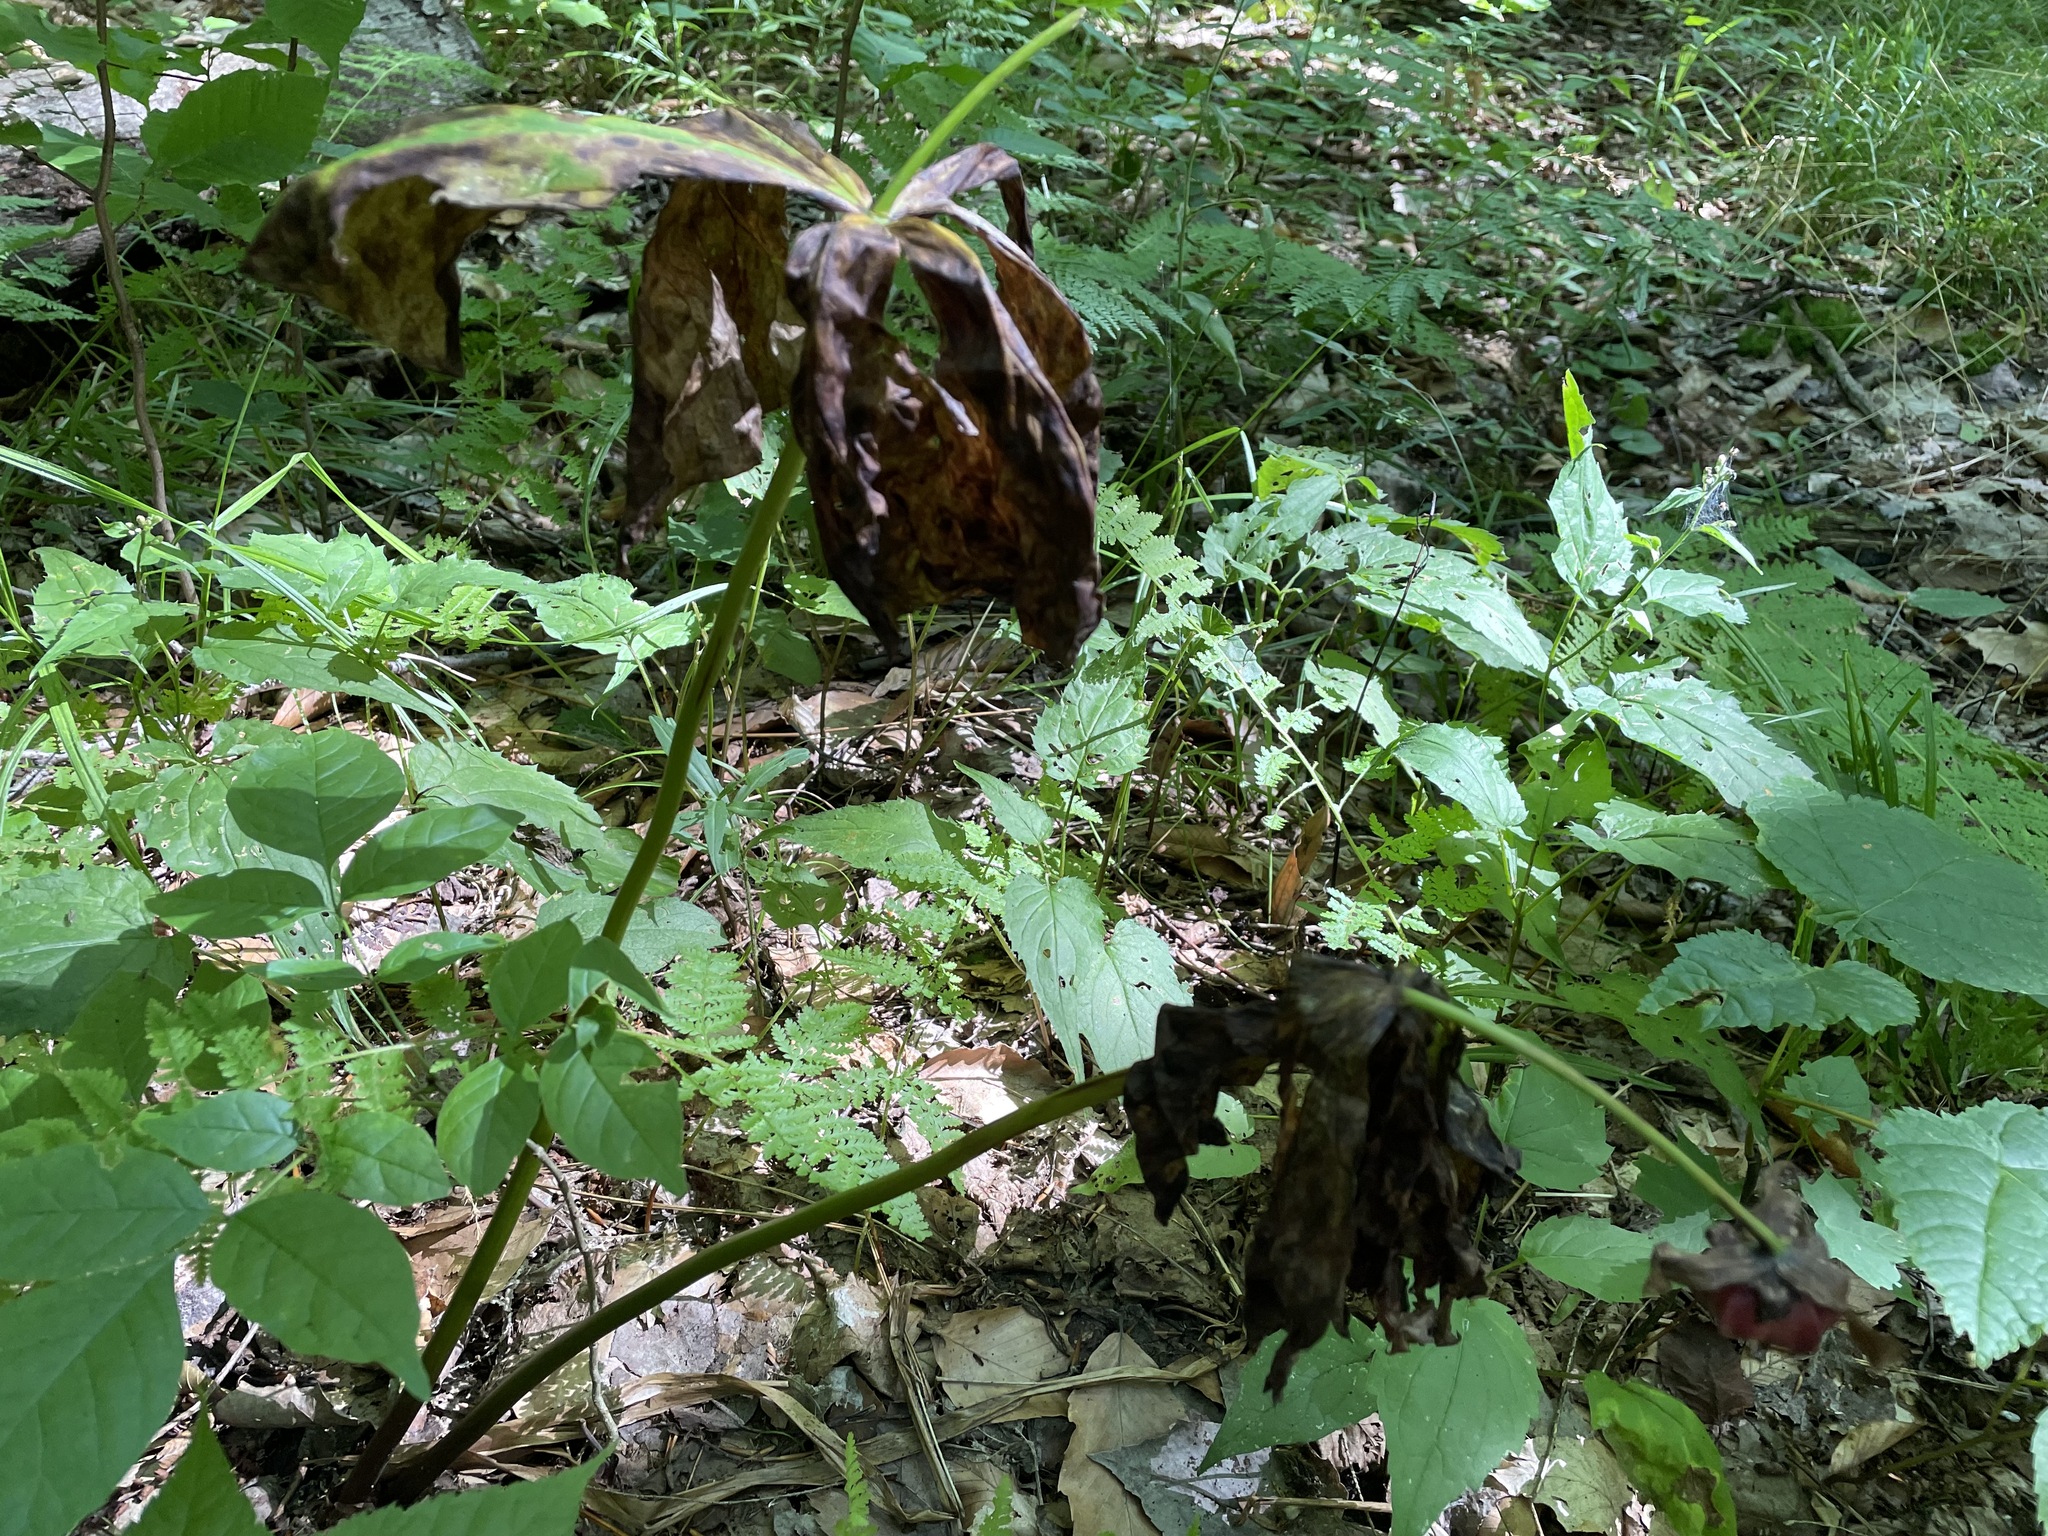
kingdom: Plantae
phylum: Tracheophyta
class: Liliopsida
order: Liliales
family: Melanthiaceae
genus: Trillium
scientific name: Trillium erectum
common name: Purple trillium
